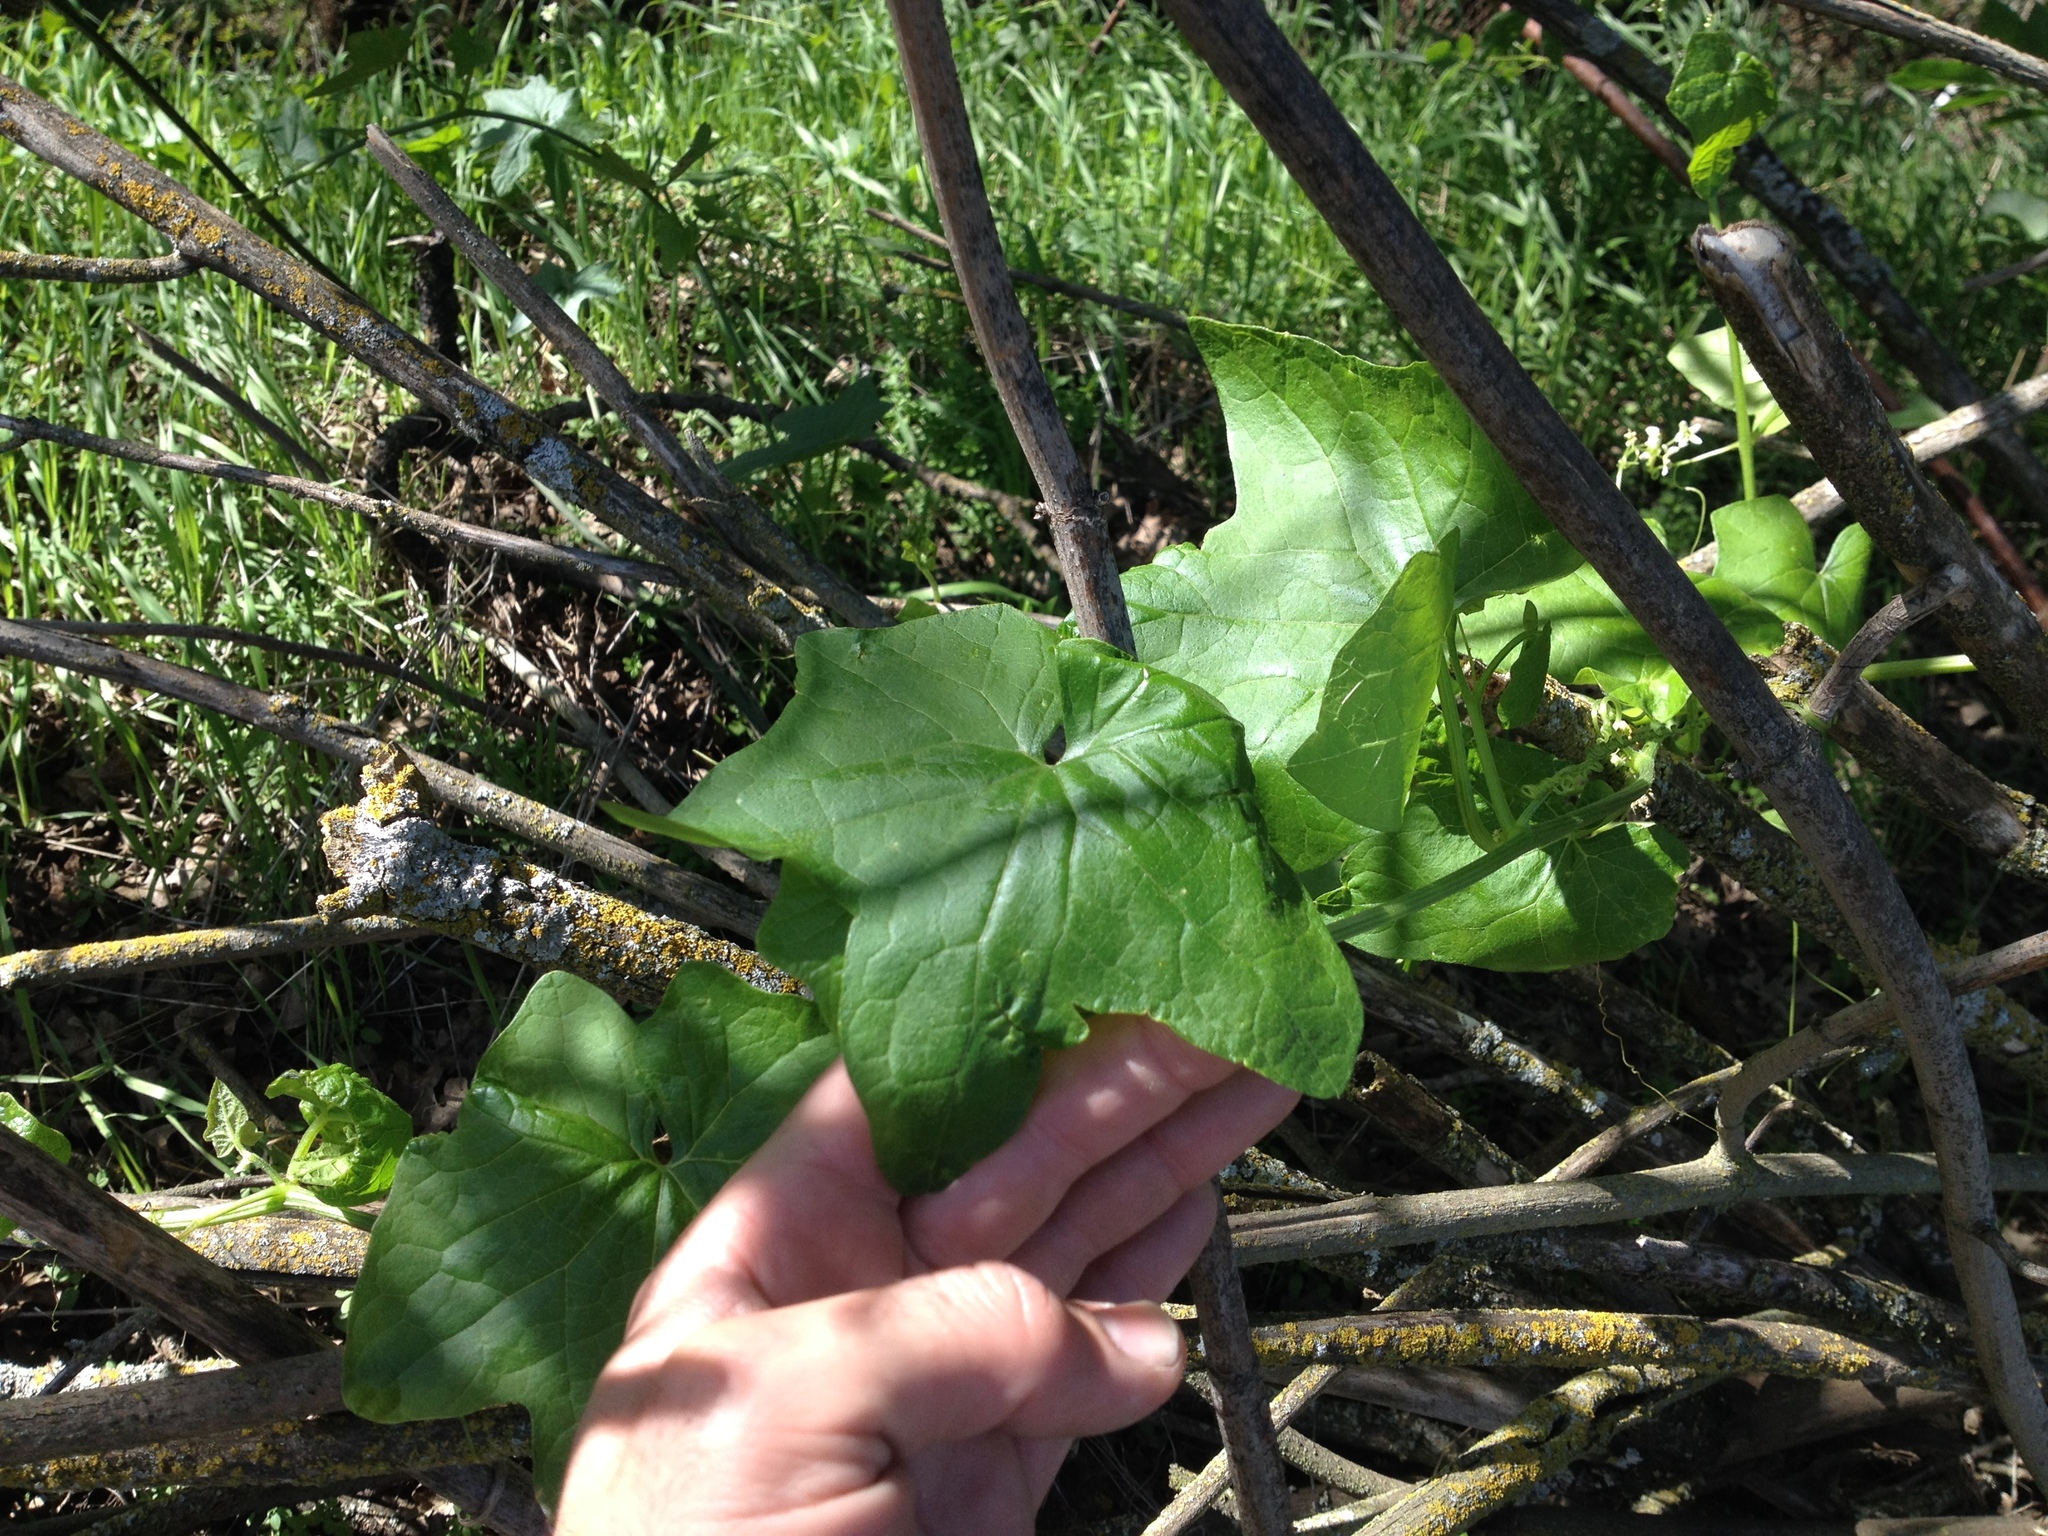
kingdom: Plantae
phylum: Tracheophyta
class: Magnoliopsida
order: Cucurbitales
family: Cucurbitaceae
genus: Marah
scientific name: Marah fabacea
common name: California manroot
